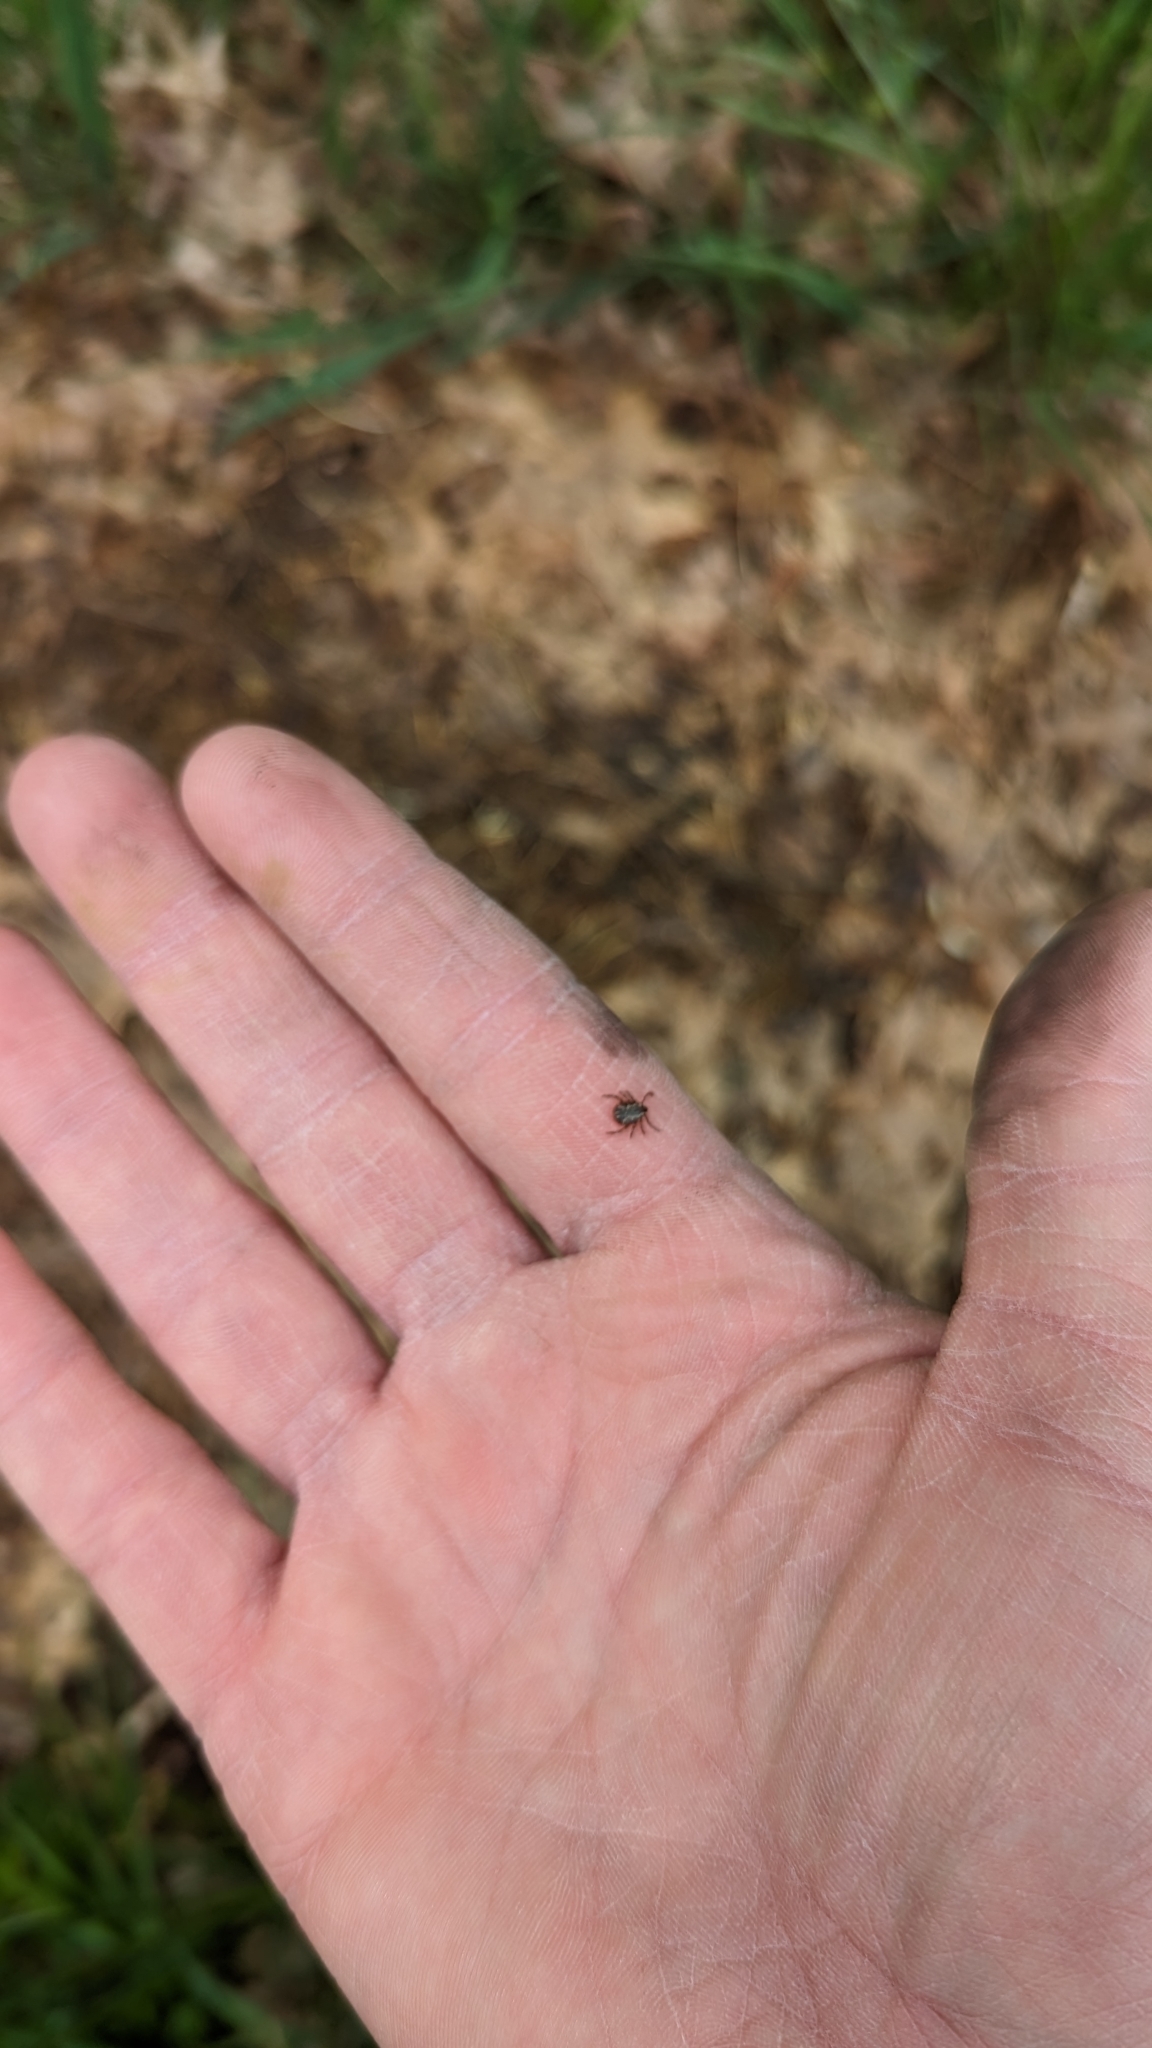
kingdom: Animalia
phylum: Arthropoda
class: Arachnida
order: Ixodida
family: Ixodidae
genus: Dermacentor
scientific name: Dermacentor variabilis
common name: American dog tick
